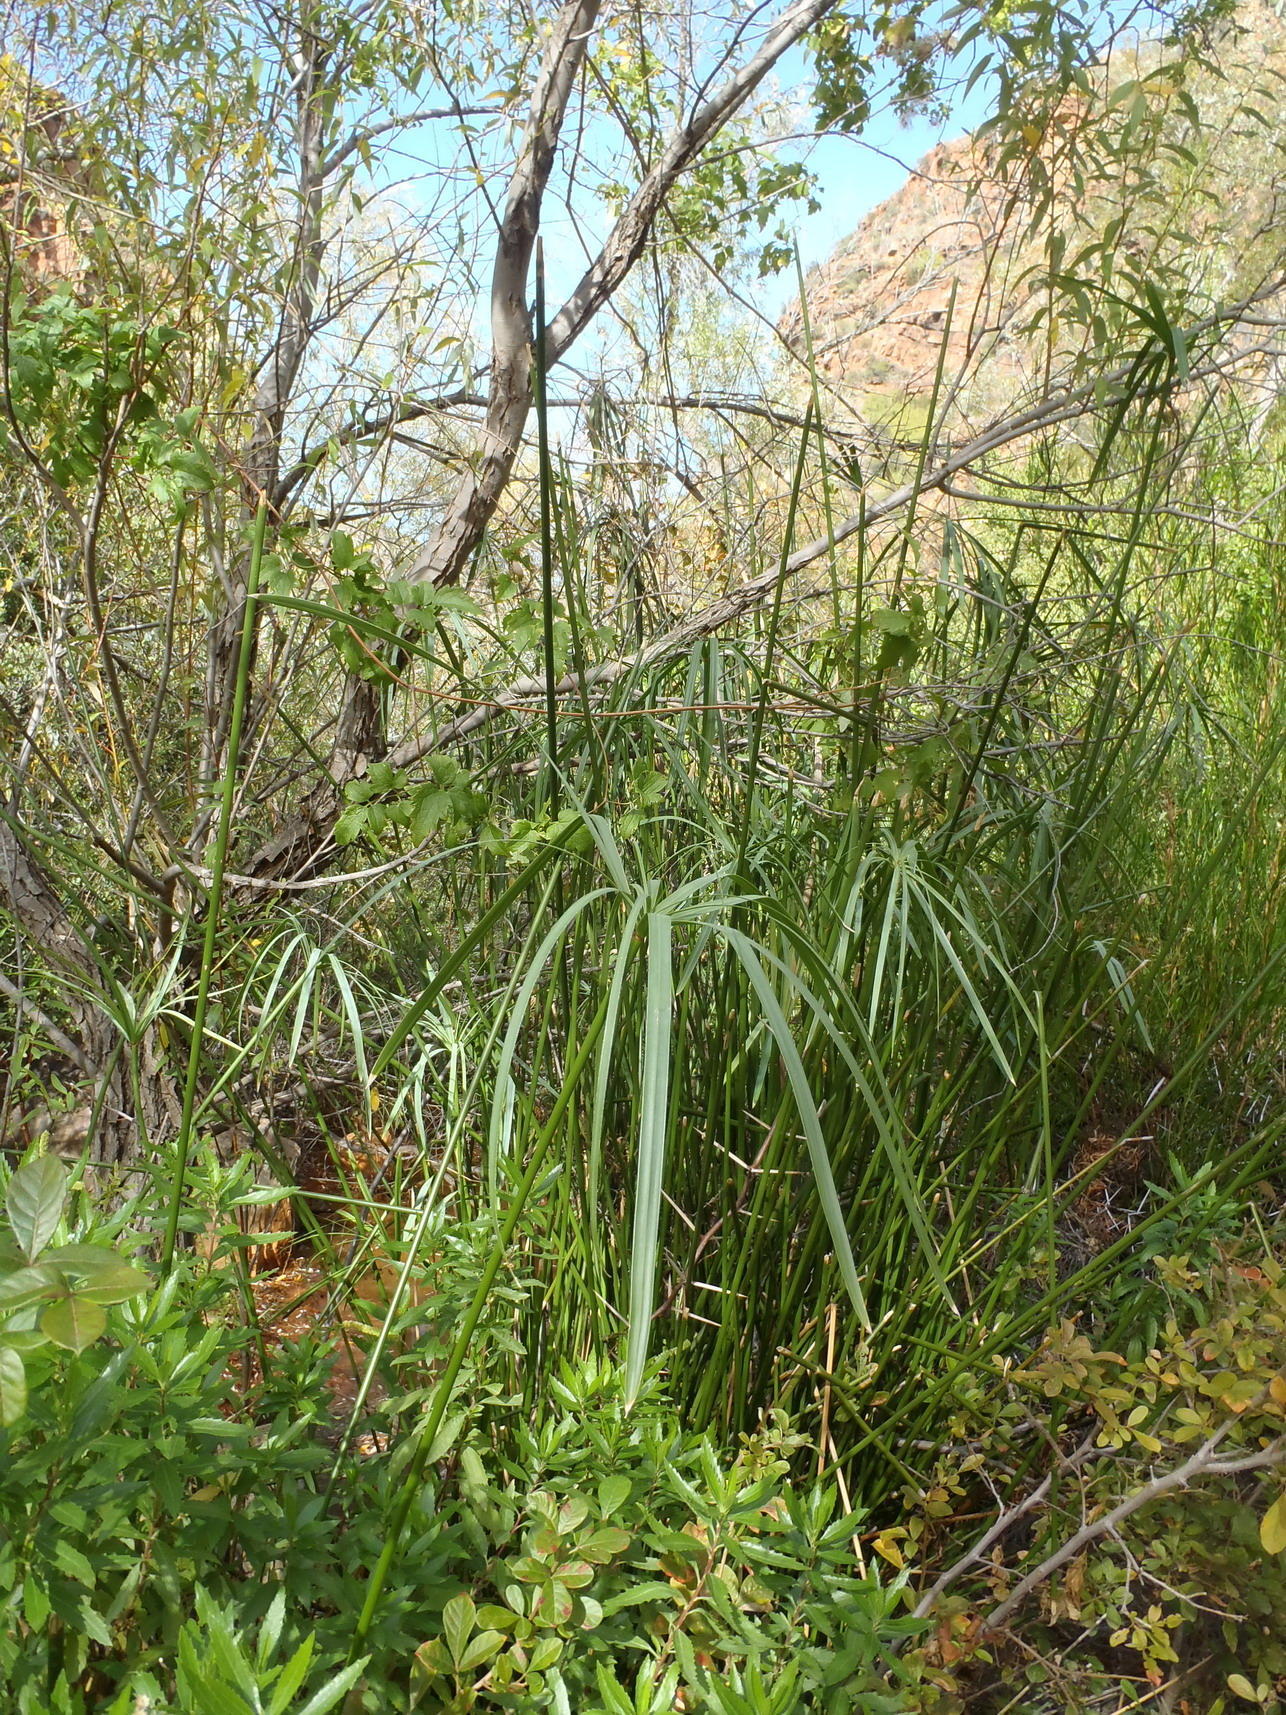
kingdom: Plantae
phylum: Tracheophyta
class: Liliopsida
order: Poales
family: Cyperaceae
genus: Cyperus
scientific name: Cyperus textilis
